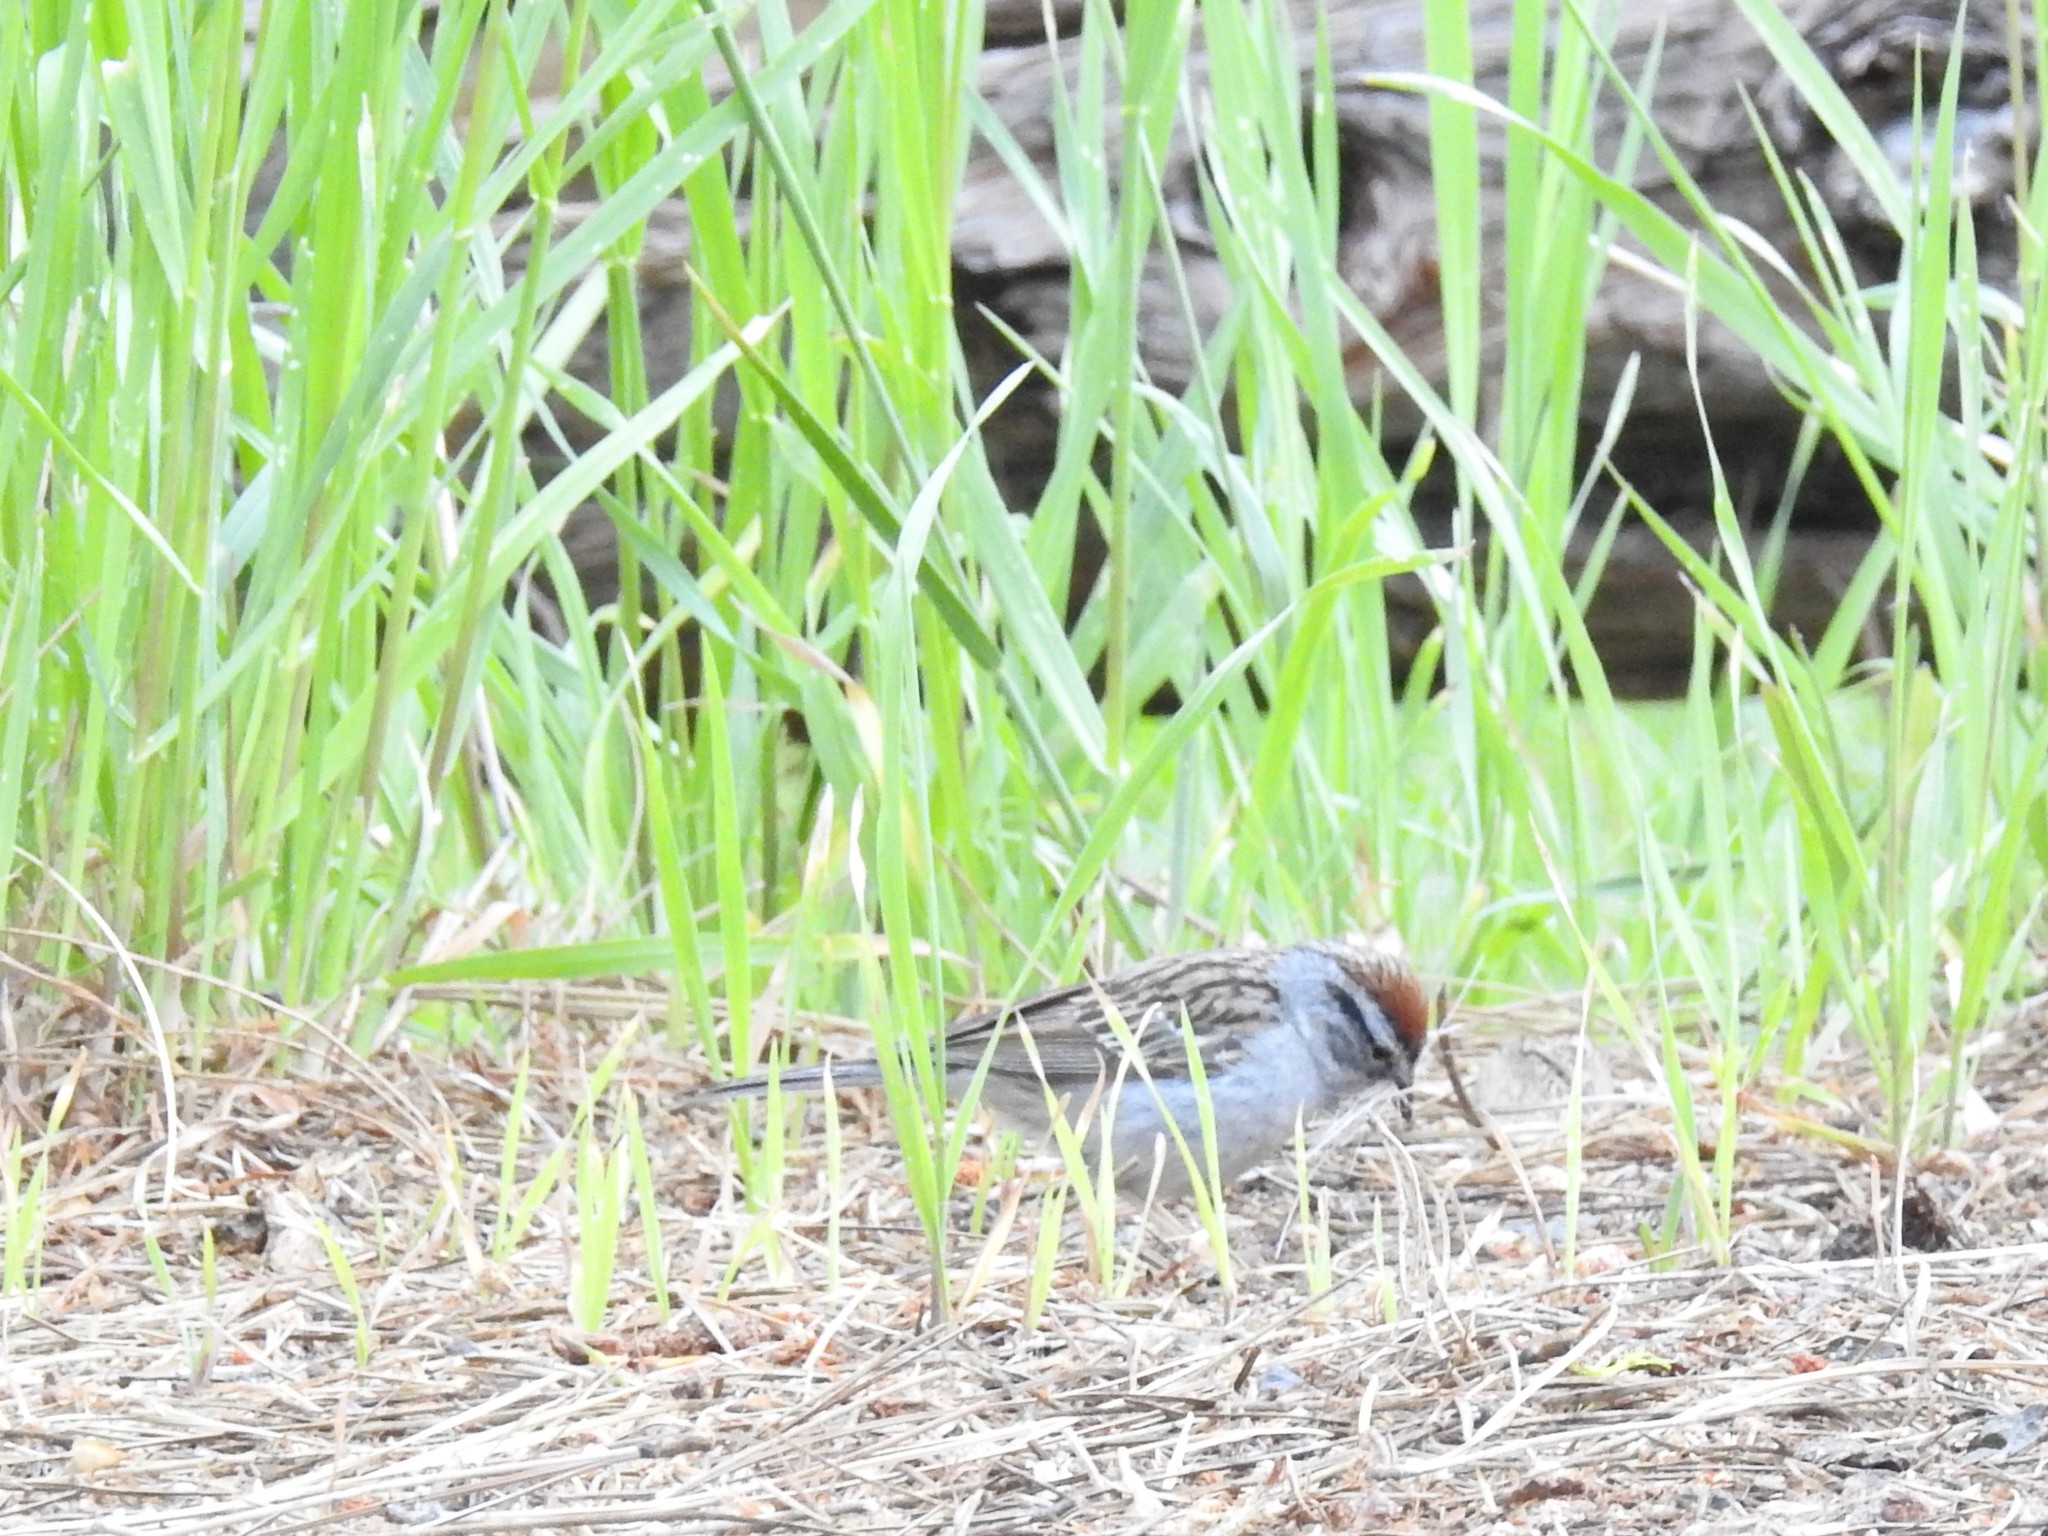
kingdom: Animalia
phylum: Chordata
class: Aves
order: Passeriformes
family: Passerellidae
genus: Spizella
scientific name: Spizella passerina
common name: Chipping sparrow
